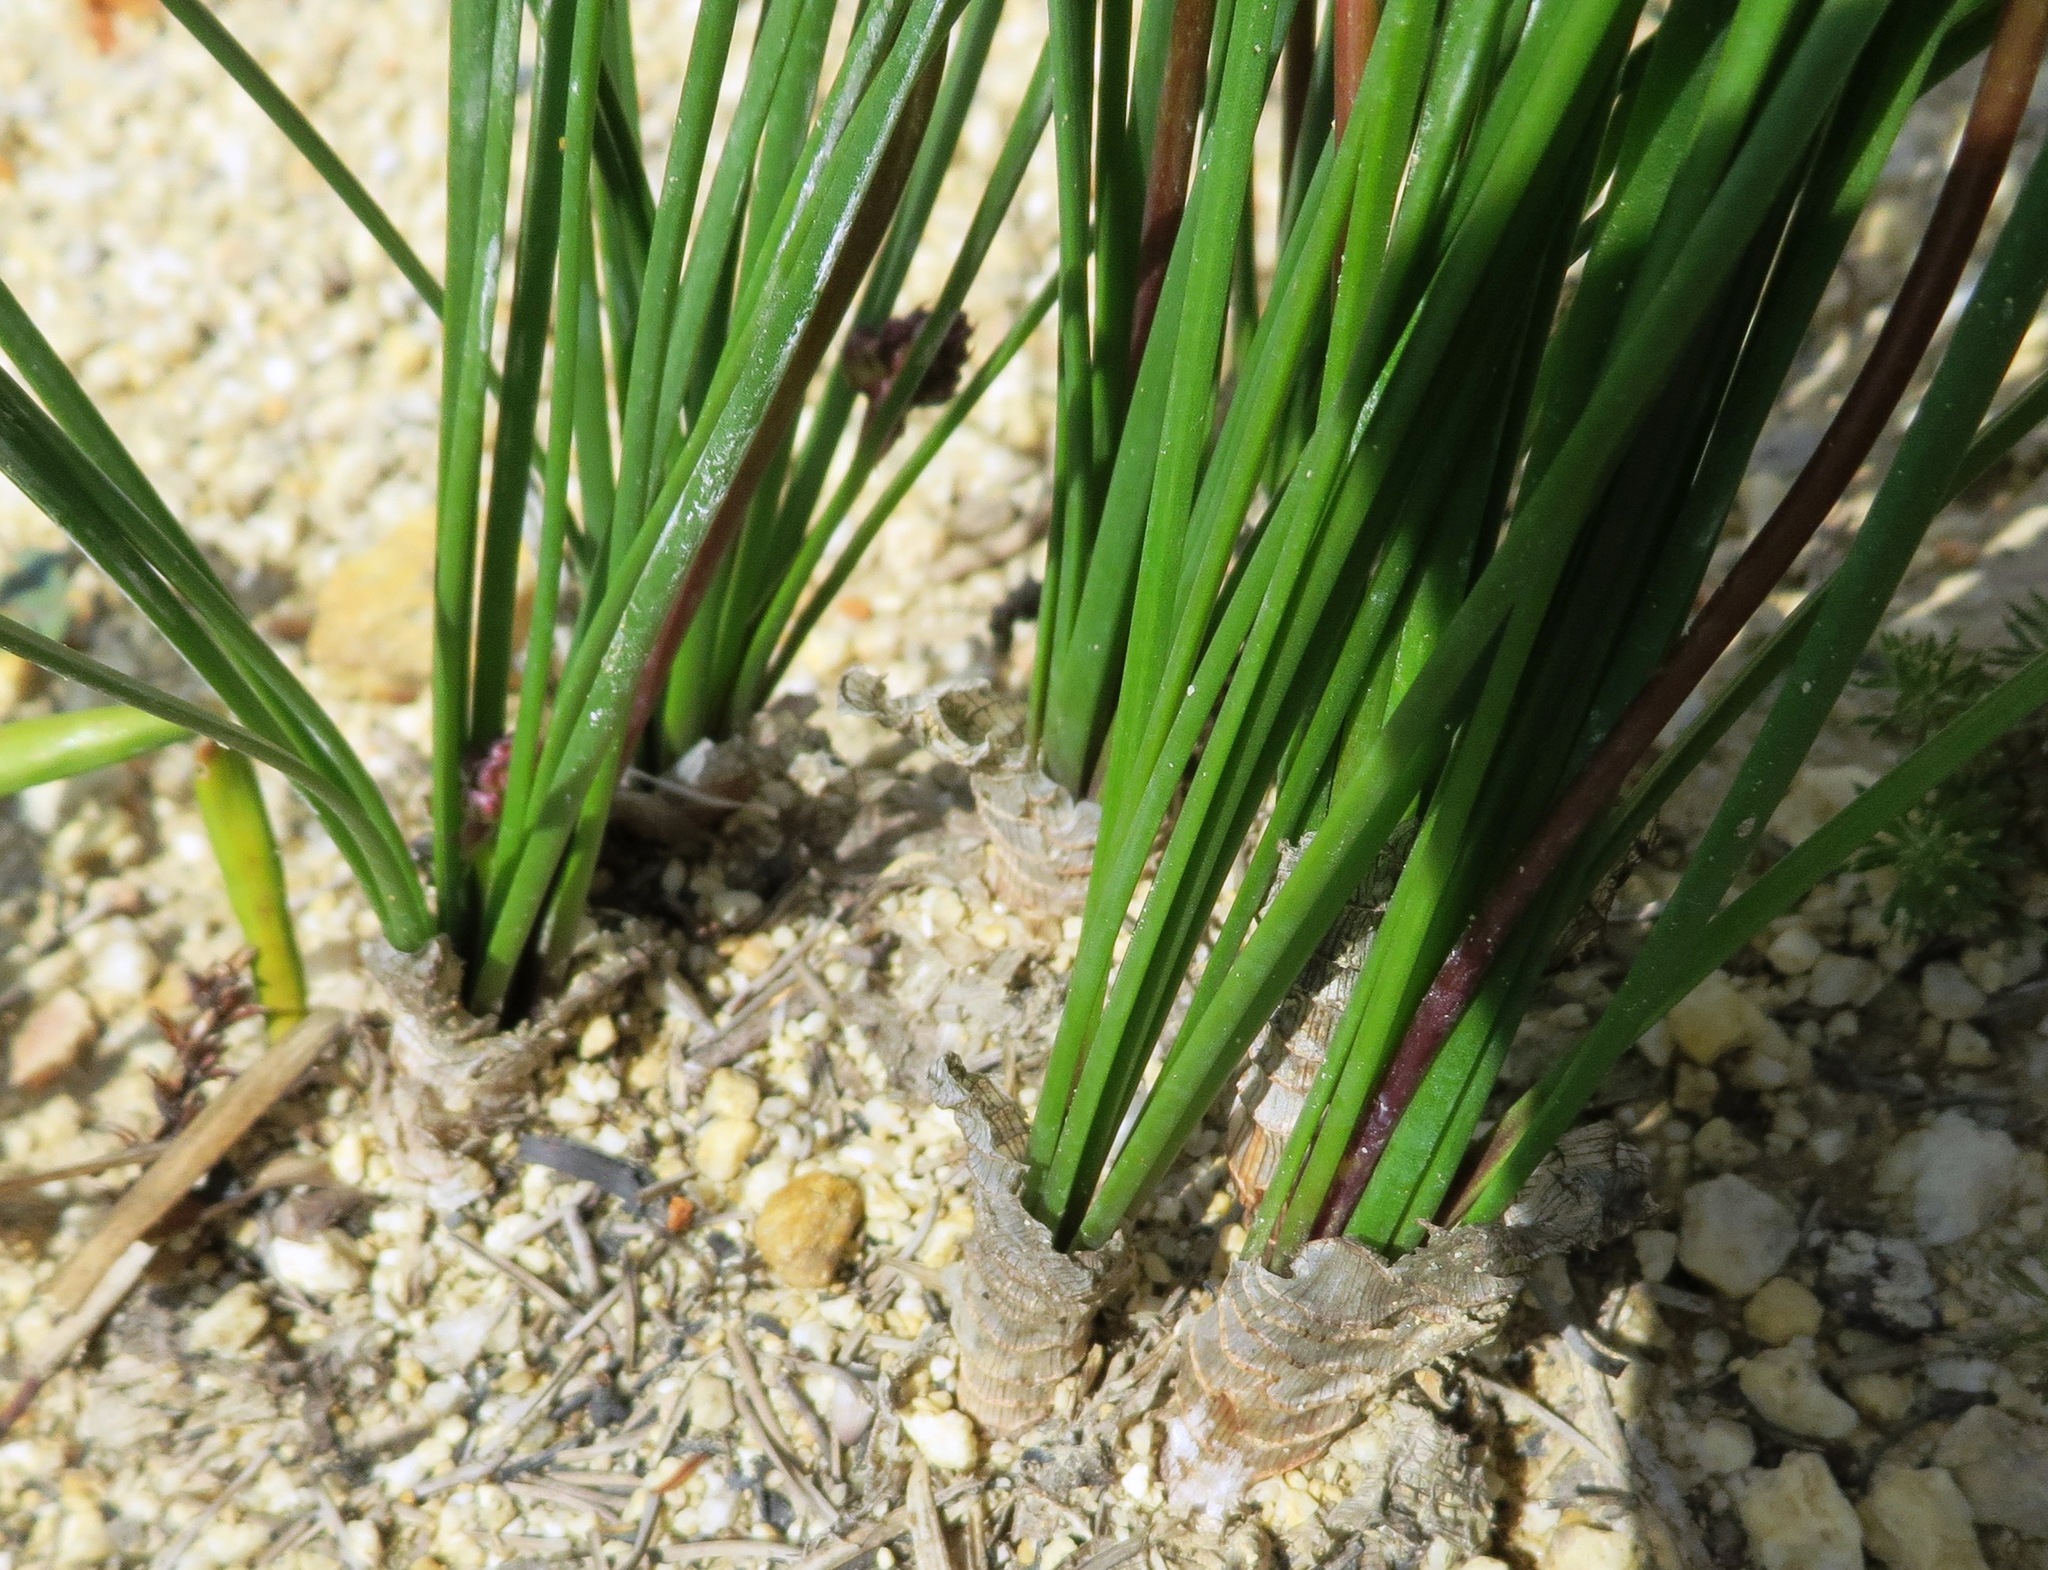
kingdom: Plantae
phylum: Tracheophyta
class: Liliopsida
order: Asparagales
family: Asparagaceae
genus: Drimia
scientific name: Drimia exuviata
